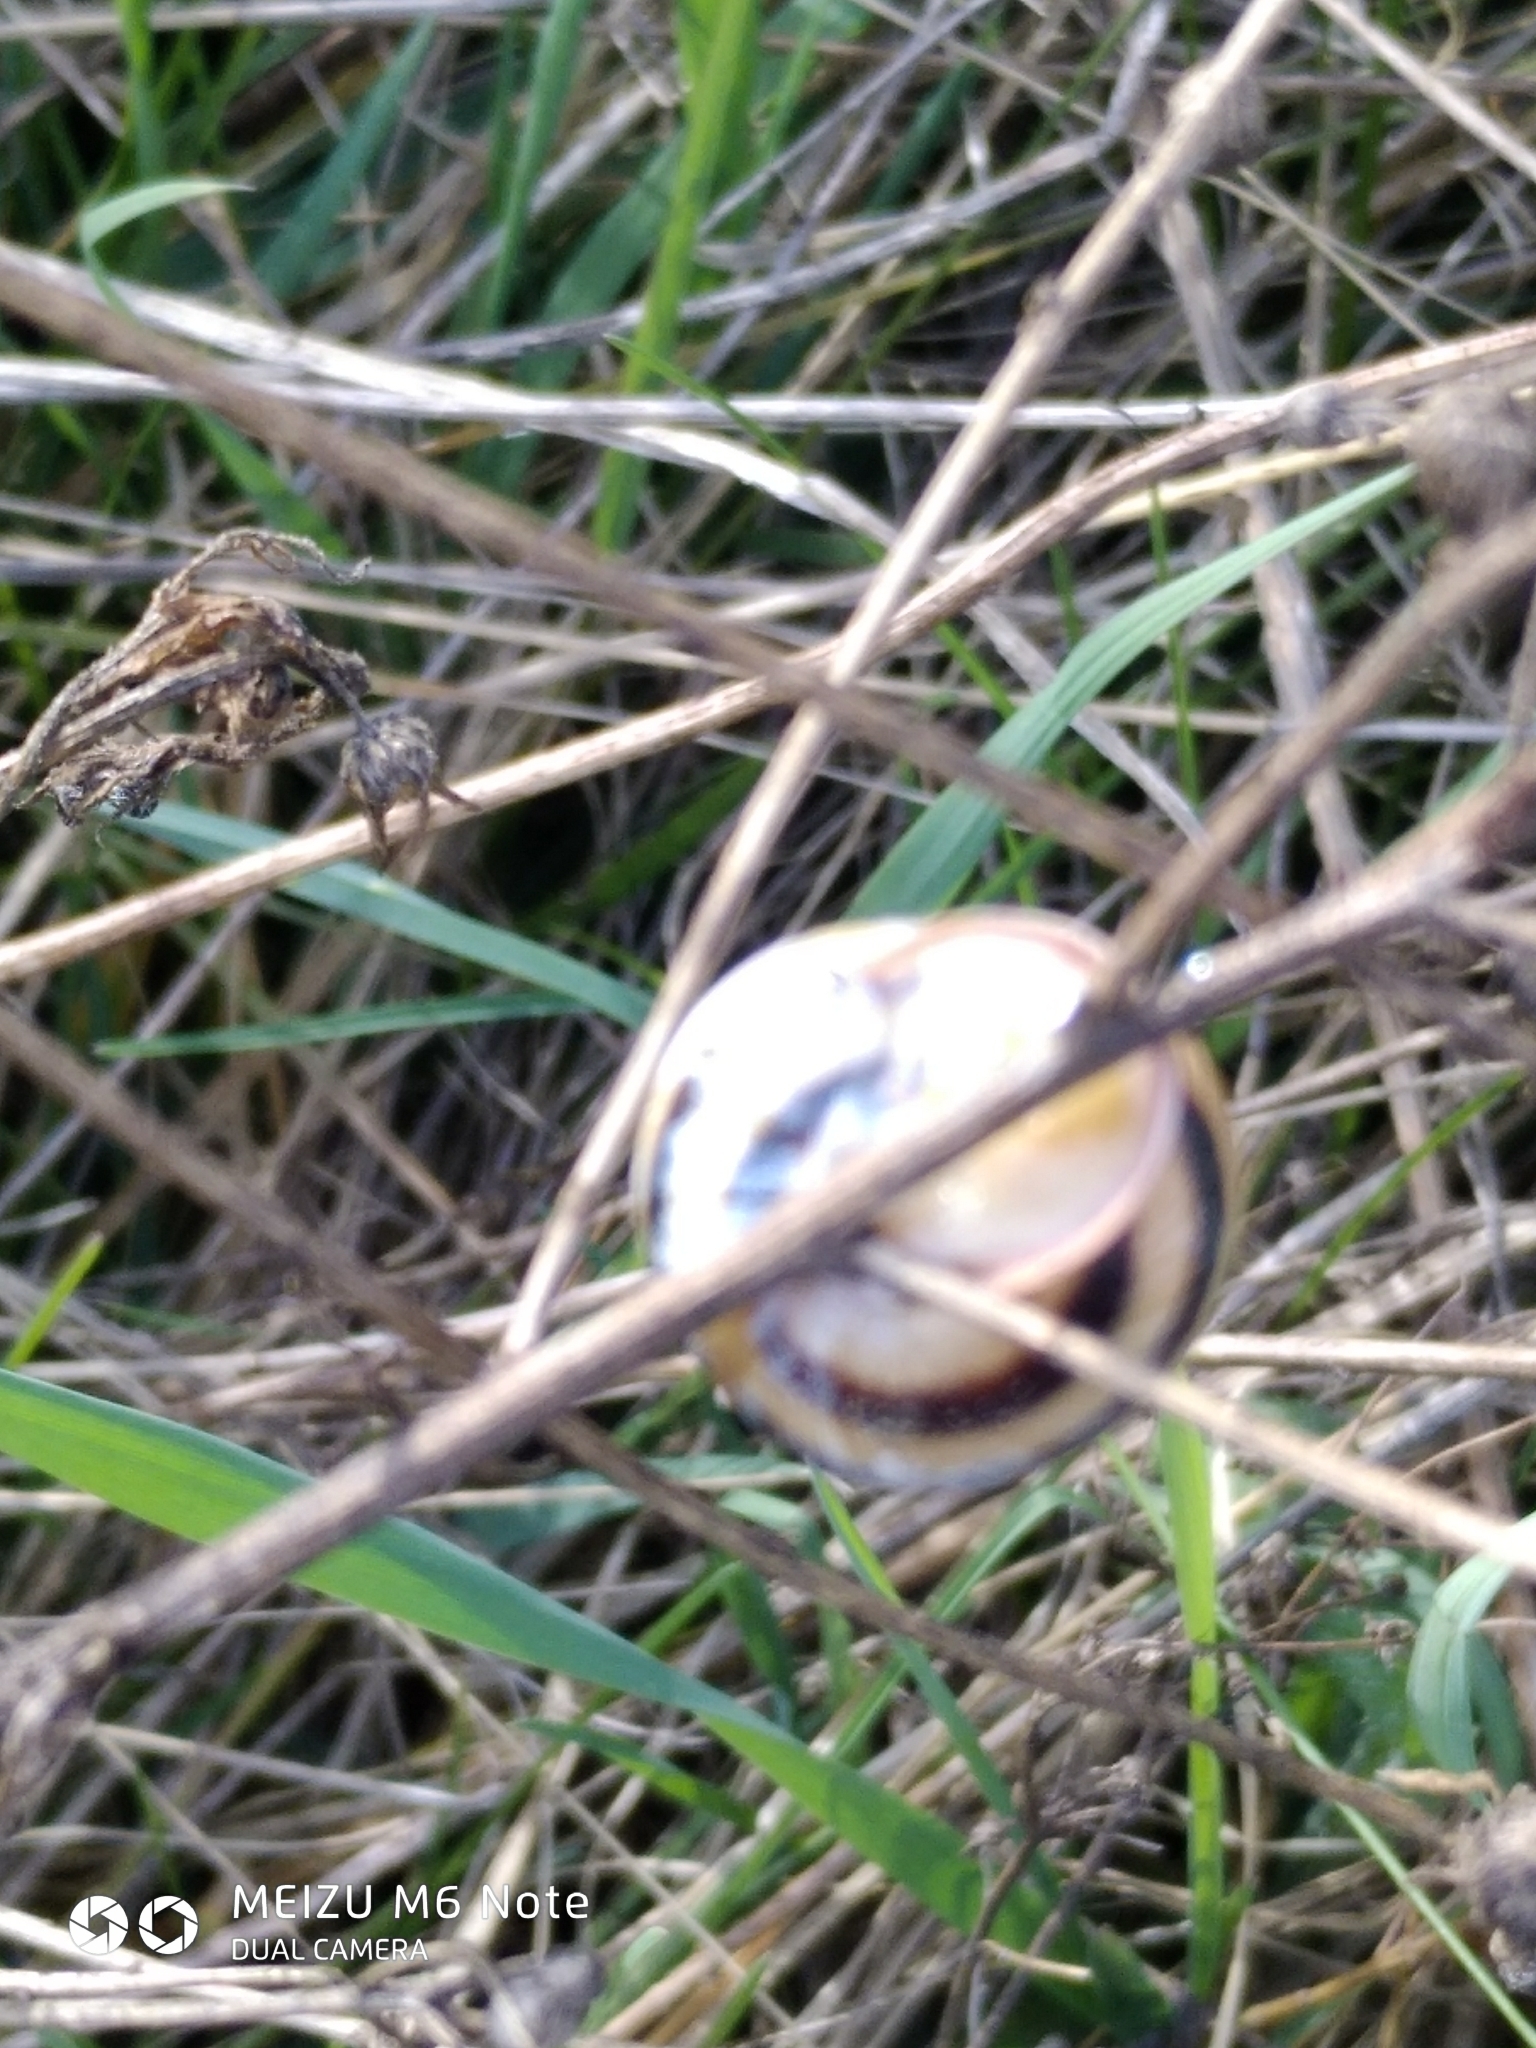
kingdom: Animalia
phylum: Mollusca
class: Gastropoda
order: Stylommatophora
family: Helicidae
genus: Caucasotachea
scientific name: Caucasotachea vindobonensis
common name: European helicid land snail
